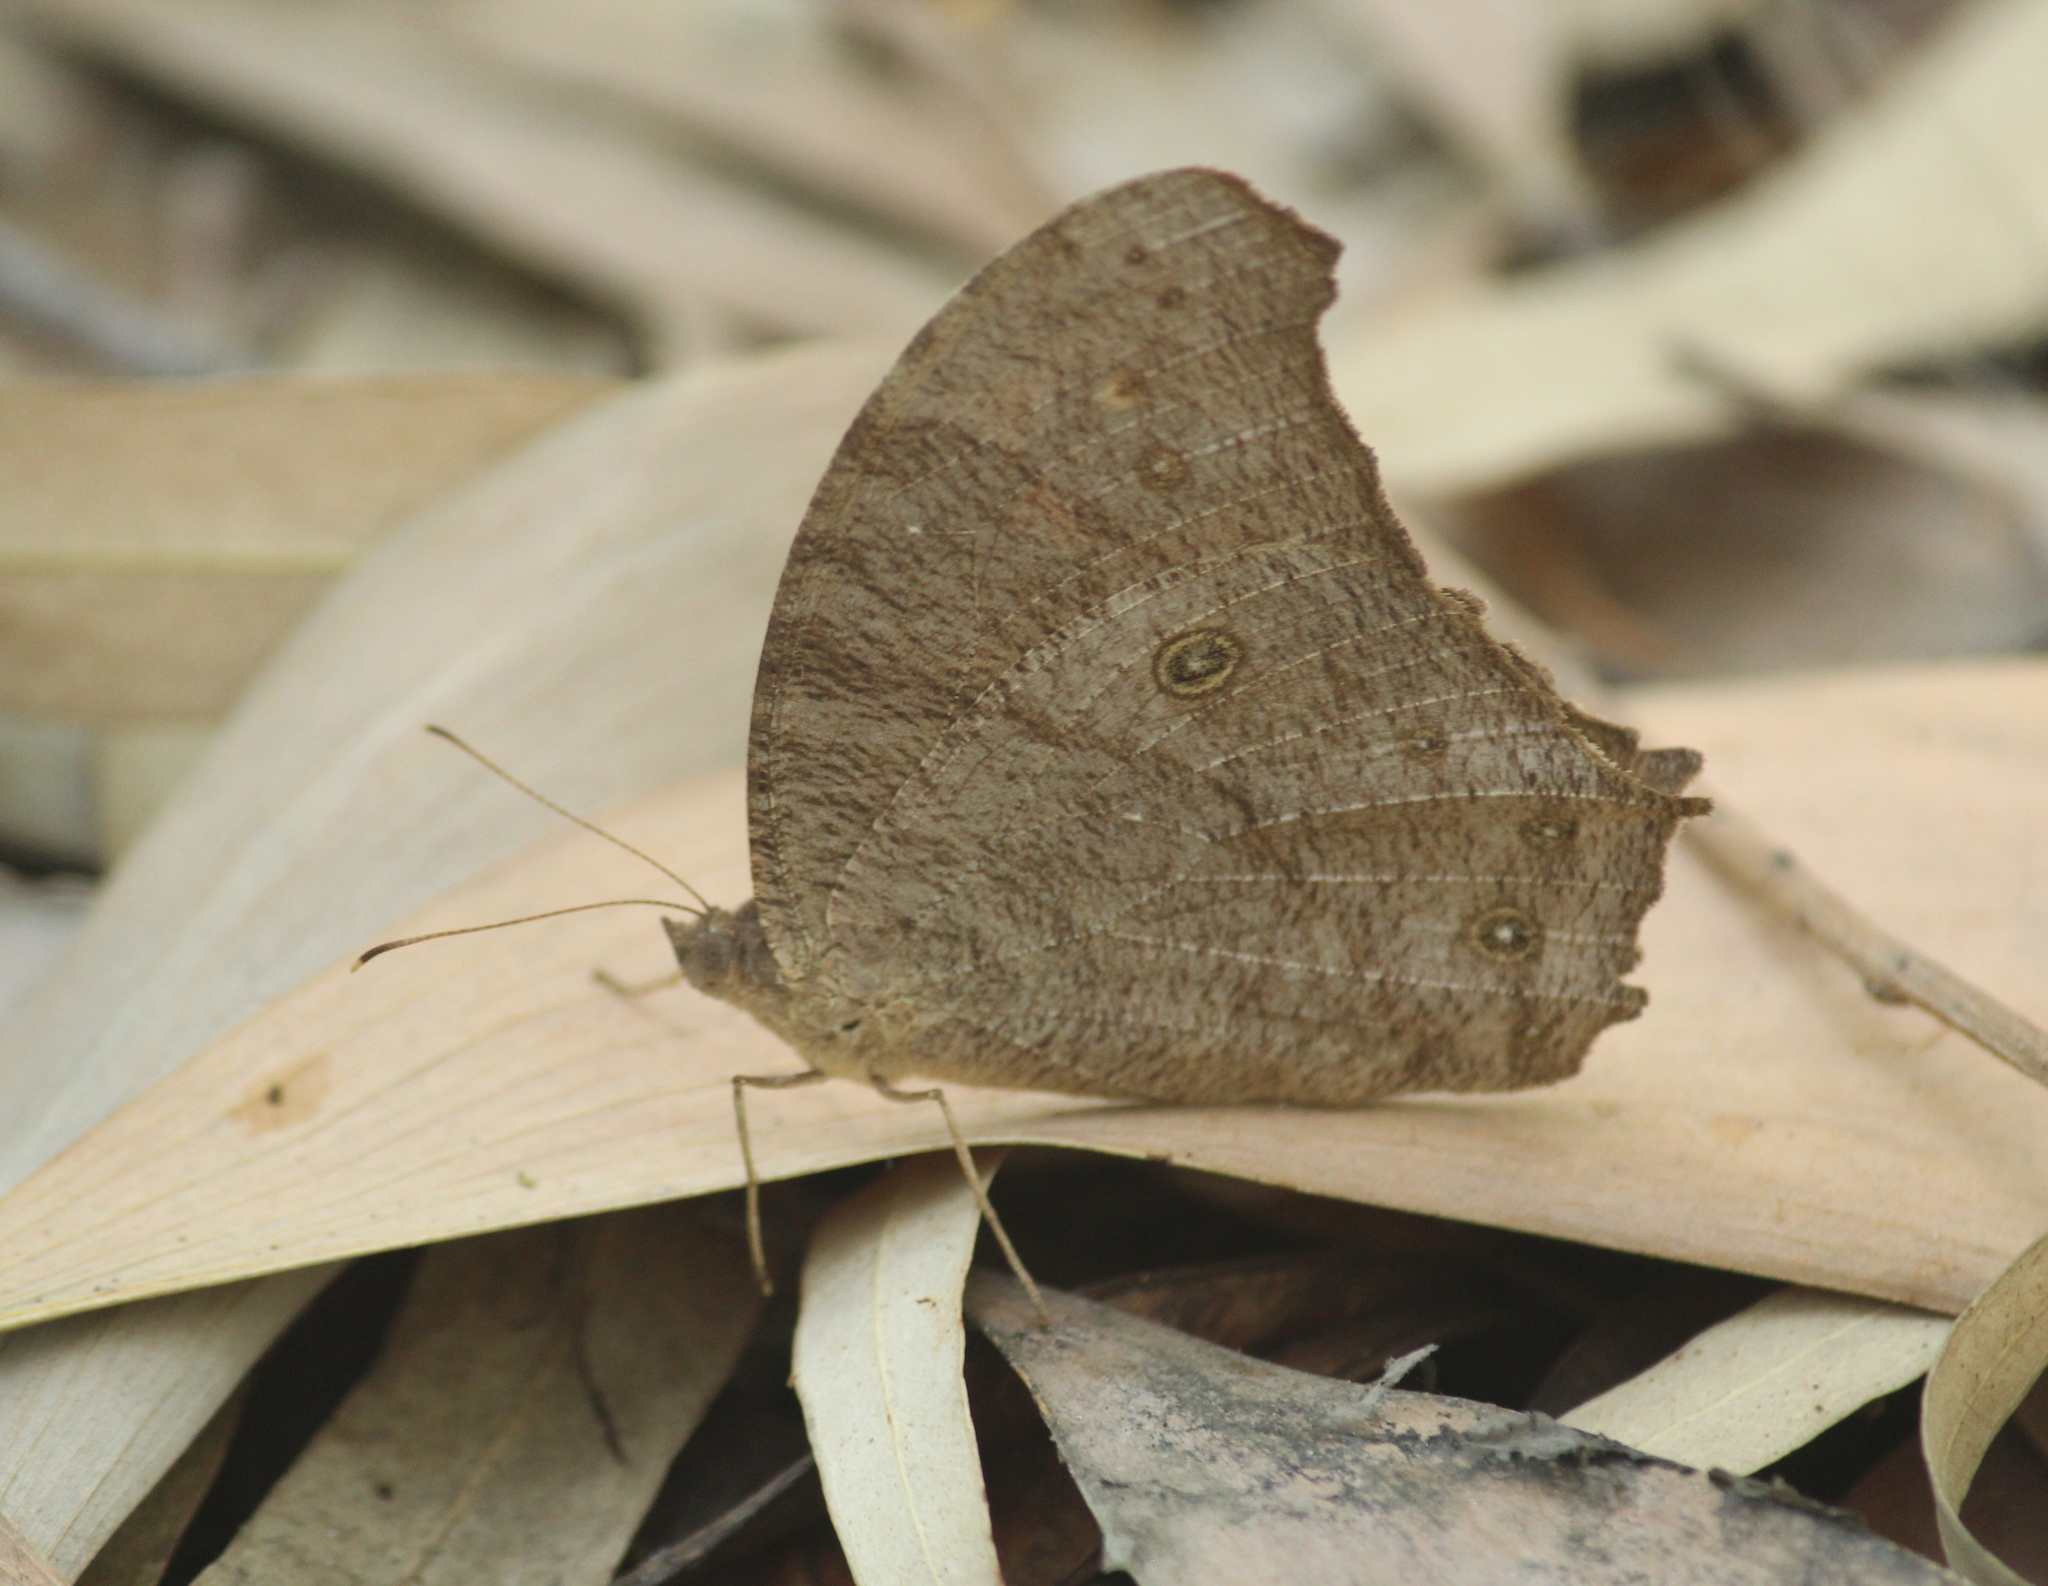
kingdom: Animalia
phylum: Arthropoda
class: Insecta
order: Lepidoptera
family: Nymphalidae
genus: Melanitis
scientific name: Melanitis leda
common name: Twilight brown
